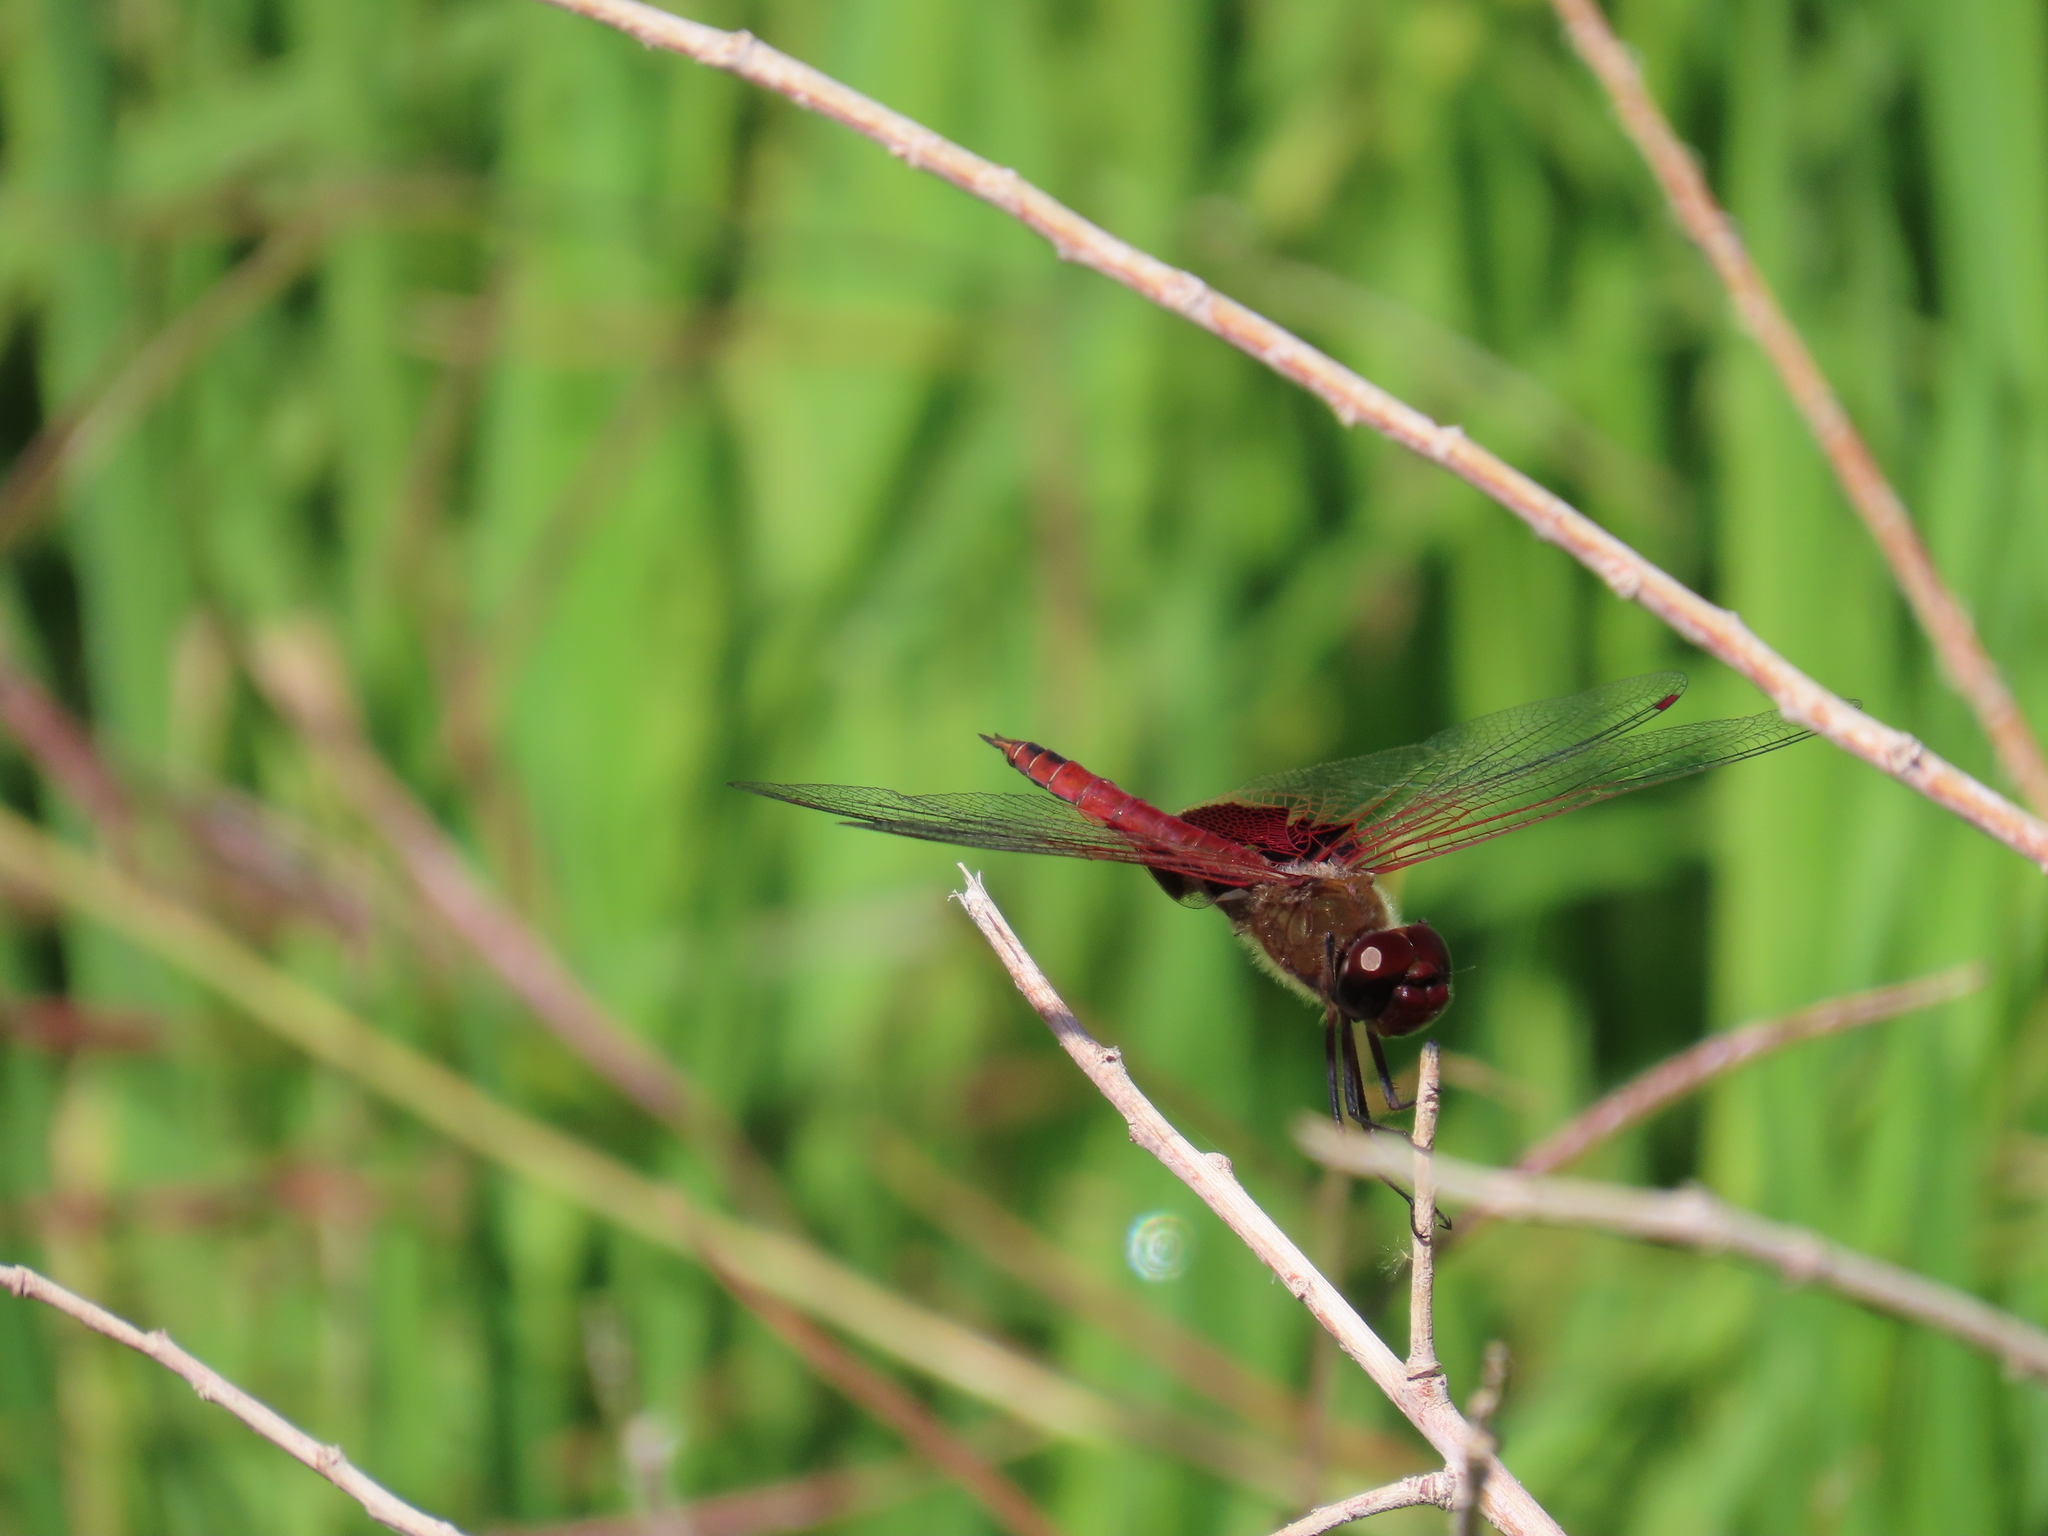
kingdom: Animalia
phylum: Arthropoda
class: Insecta
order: Odonata
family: Libellulidae
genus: Tramea
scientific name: Tramea onusta
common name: Red saddlebags
